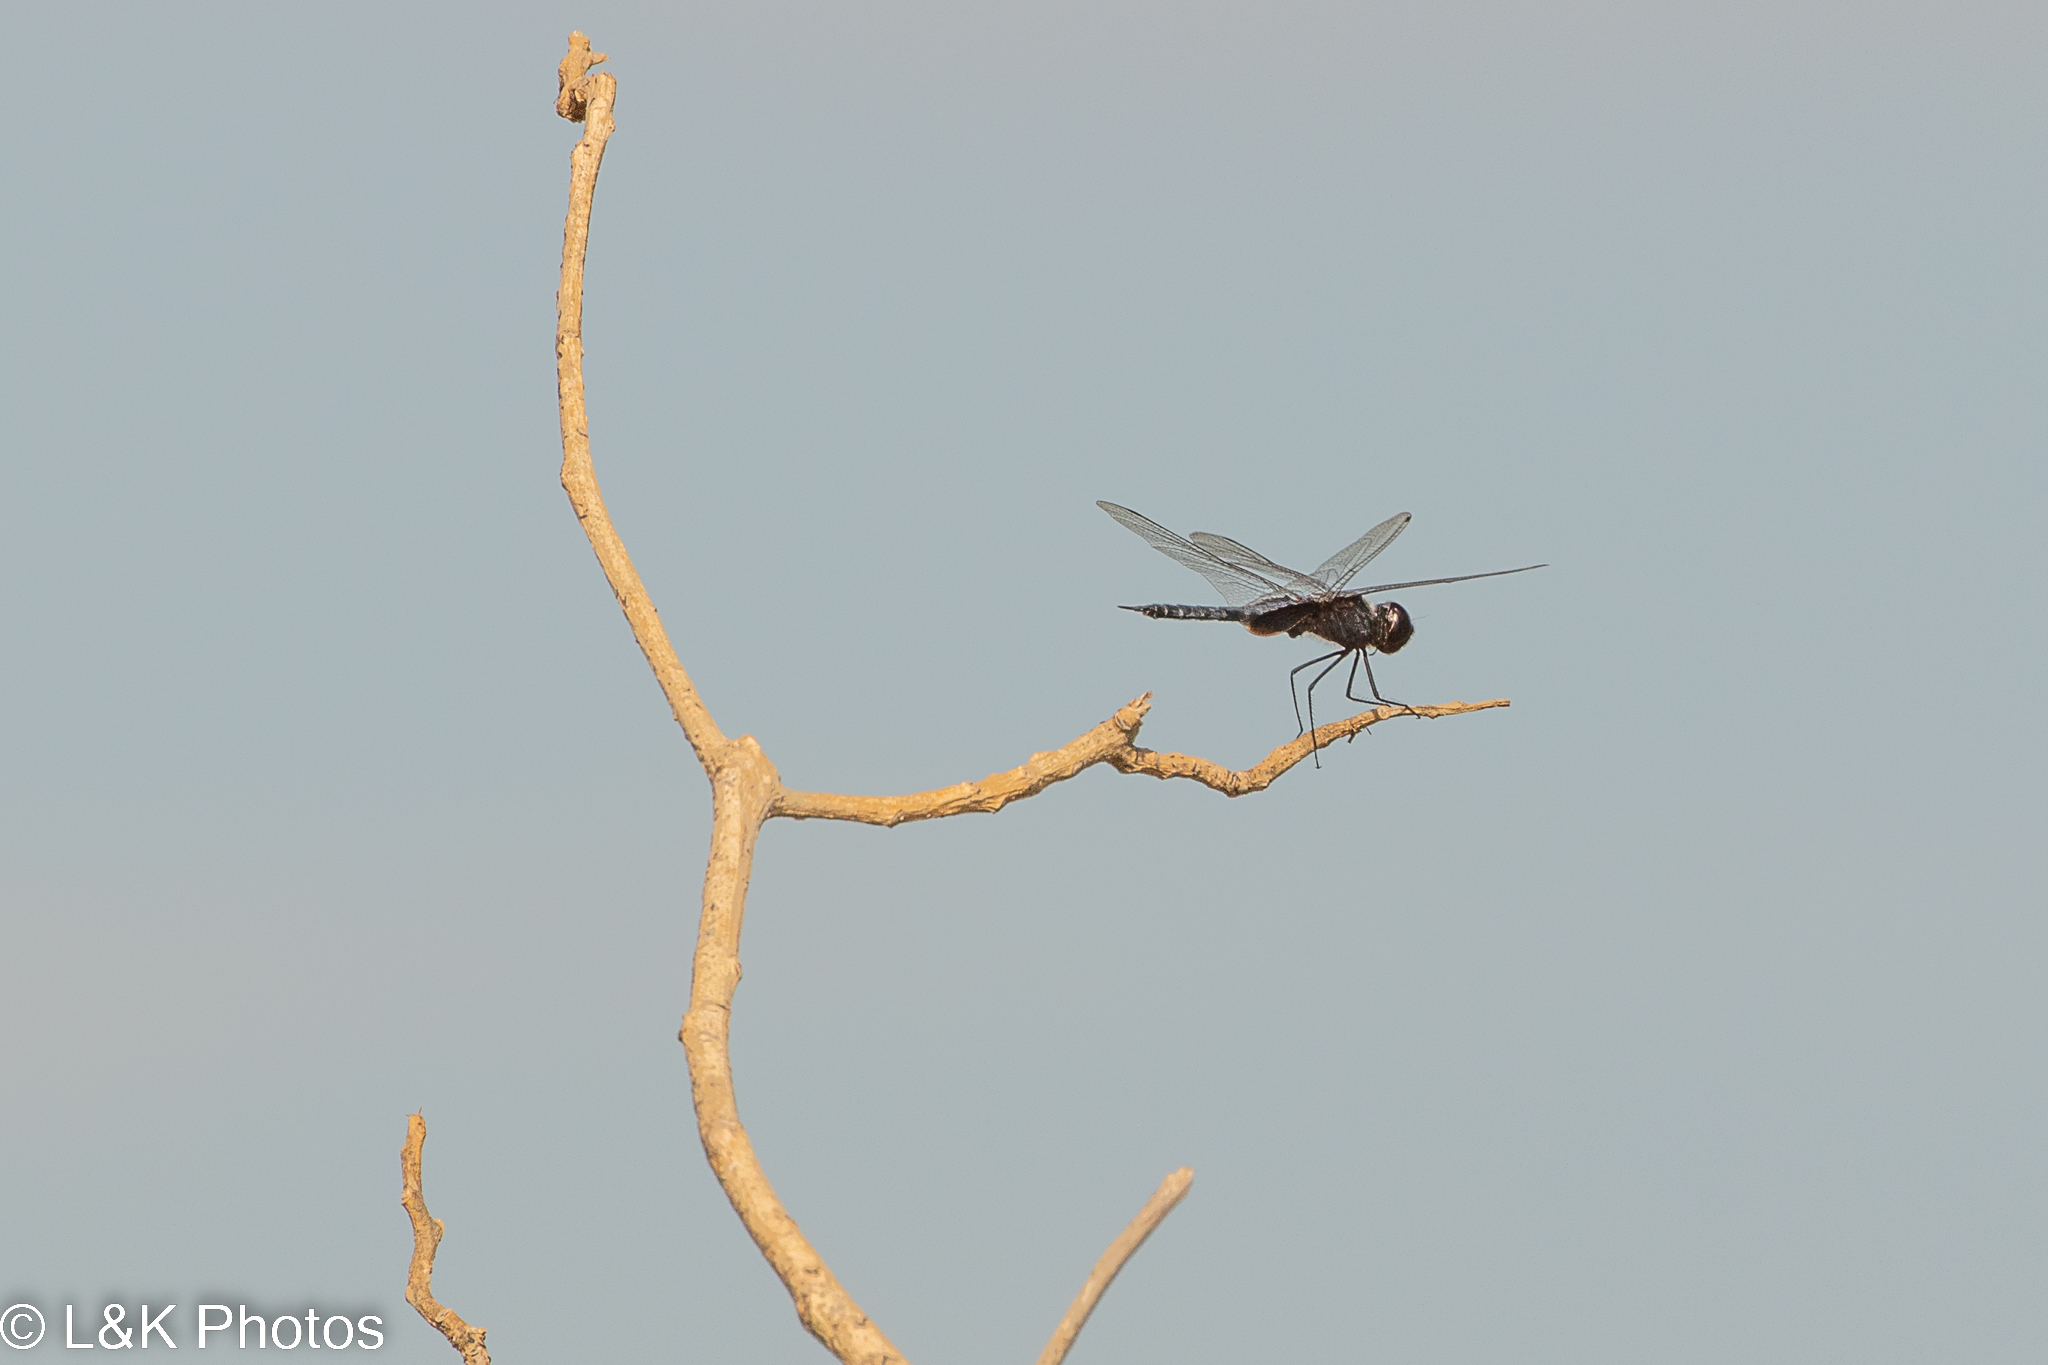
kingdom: Animalia
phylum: Arthropoda
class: Insecta
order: Odonata
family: Libellulidae
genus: Tramea
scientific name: Tramea binotata
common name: Sooty saddlebags
